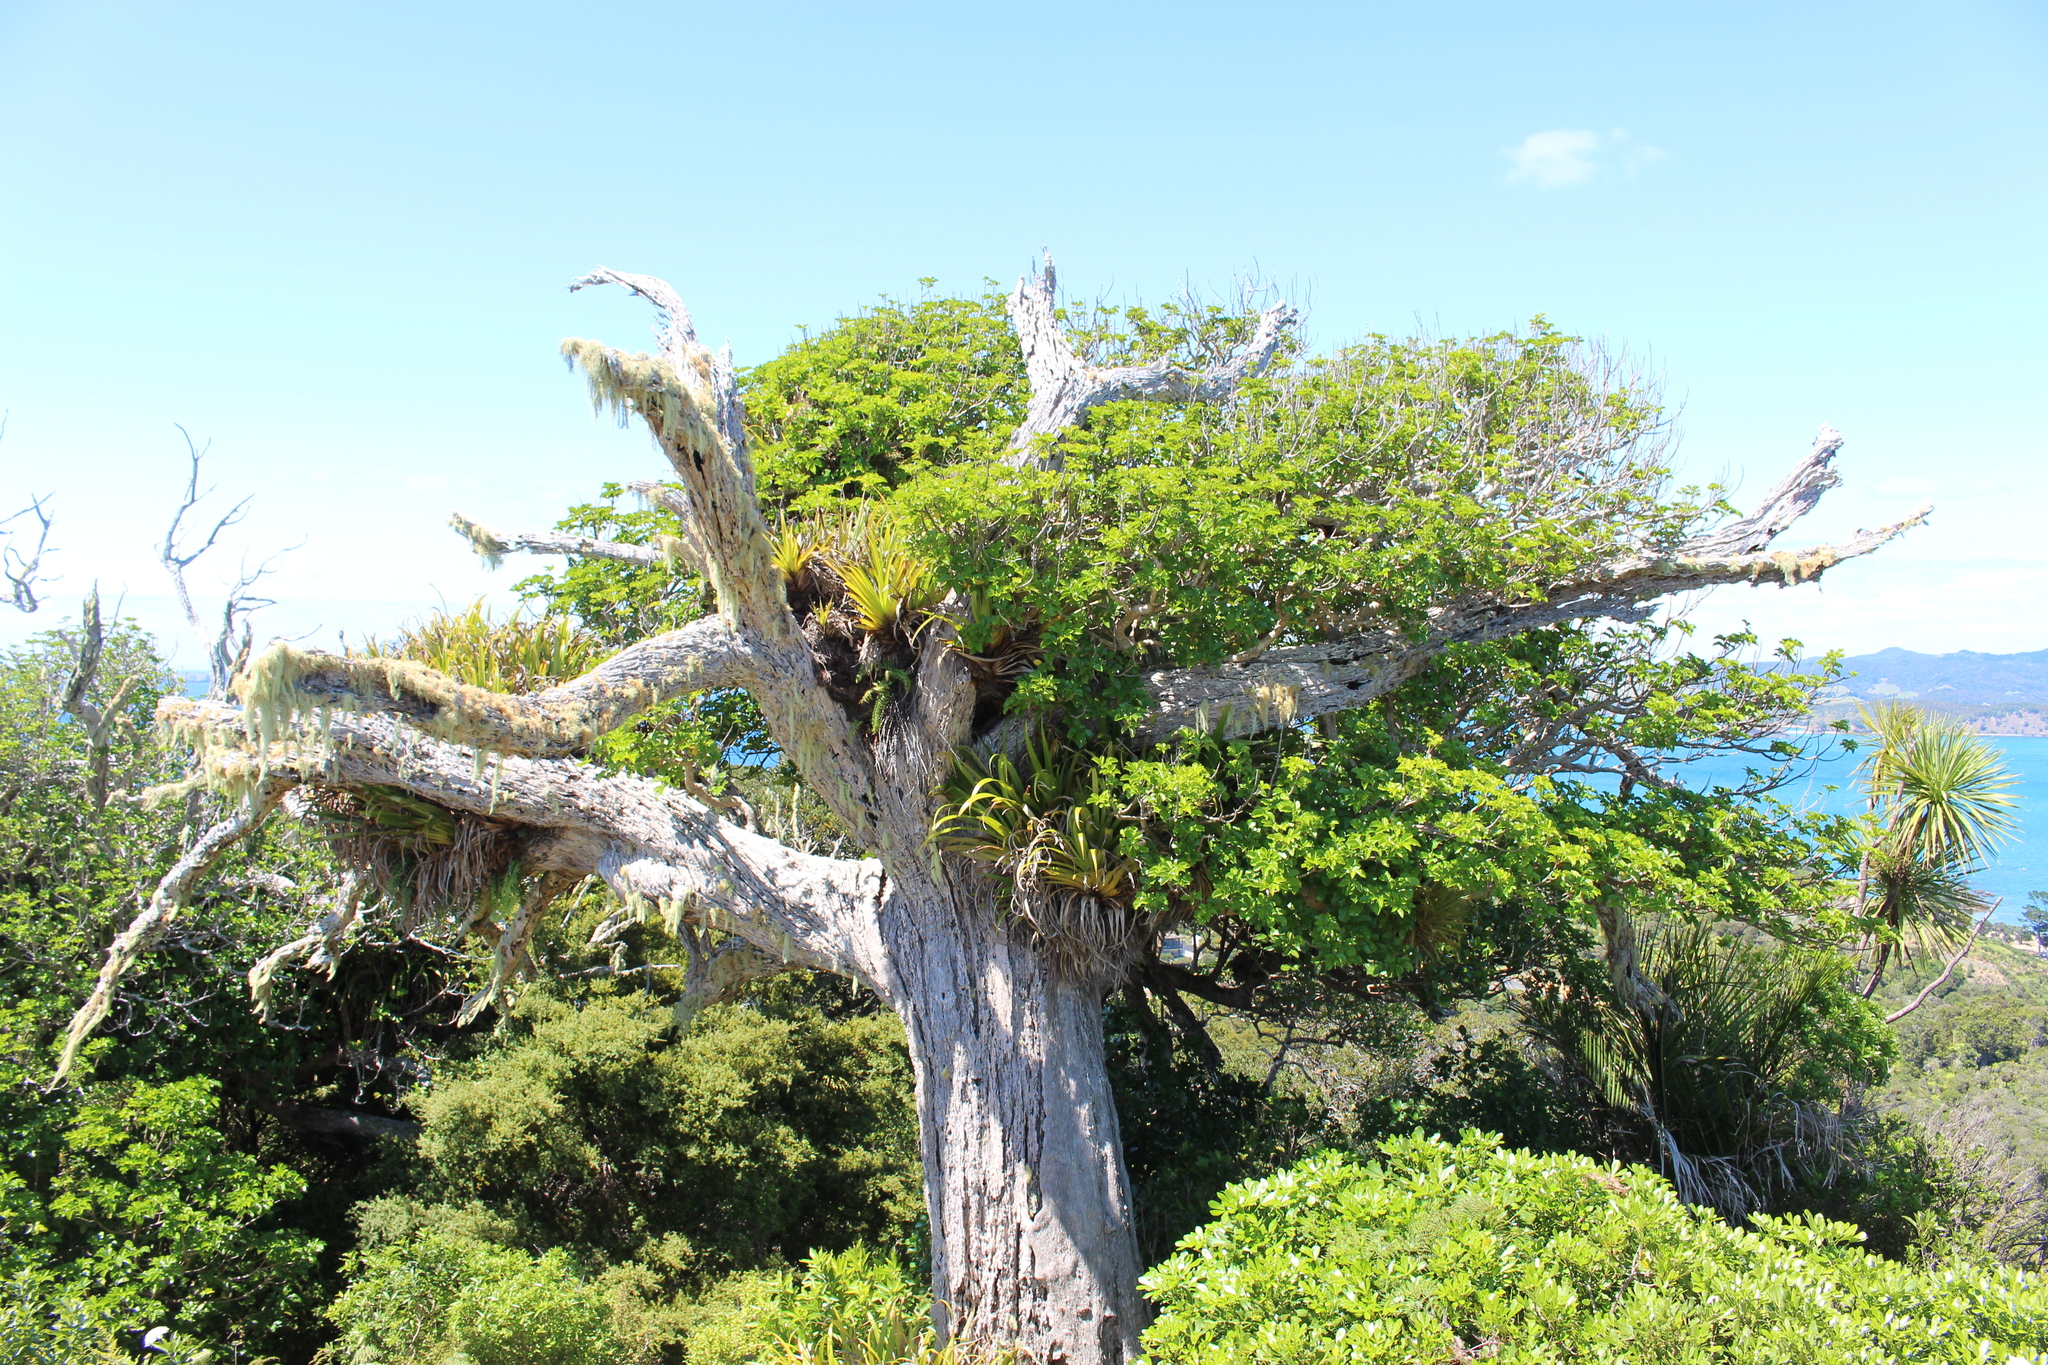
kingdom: Plantae
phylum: Tracheophyta
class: Liliopsida
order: Asparagales
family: Asteliaceae
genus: Astelia
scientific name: Astelia hastata
